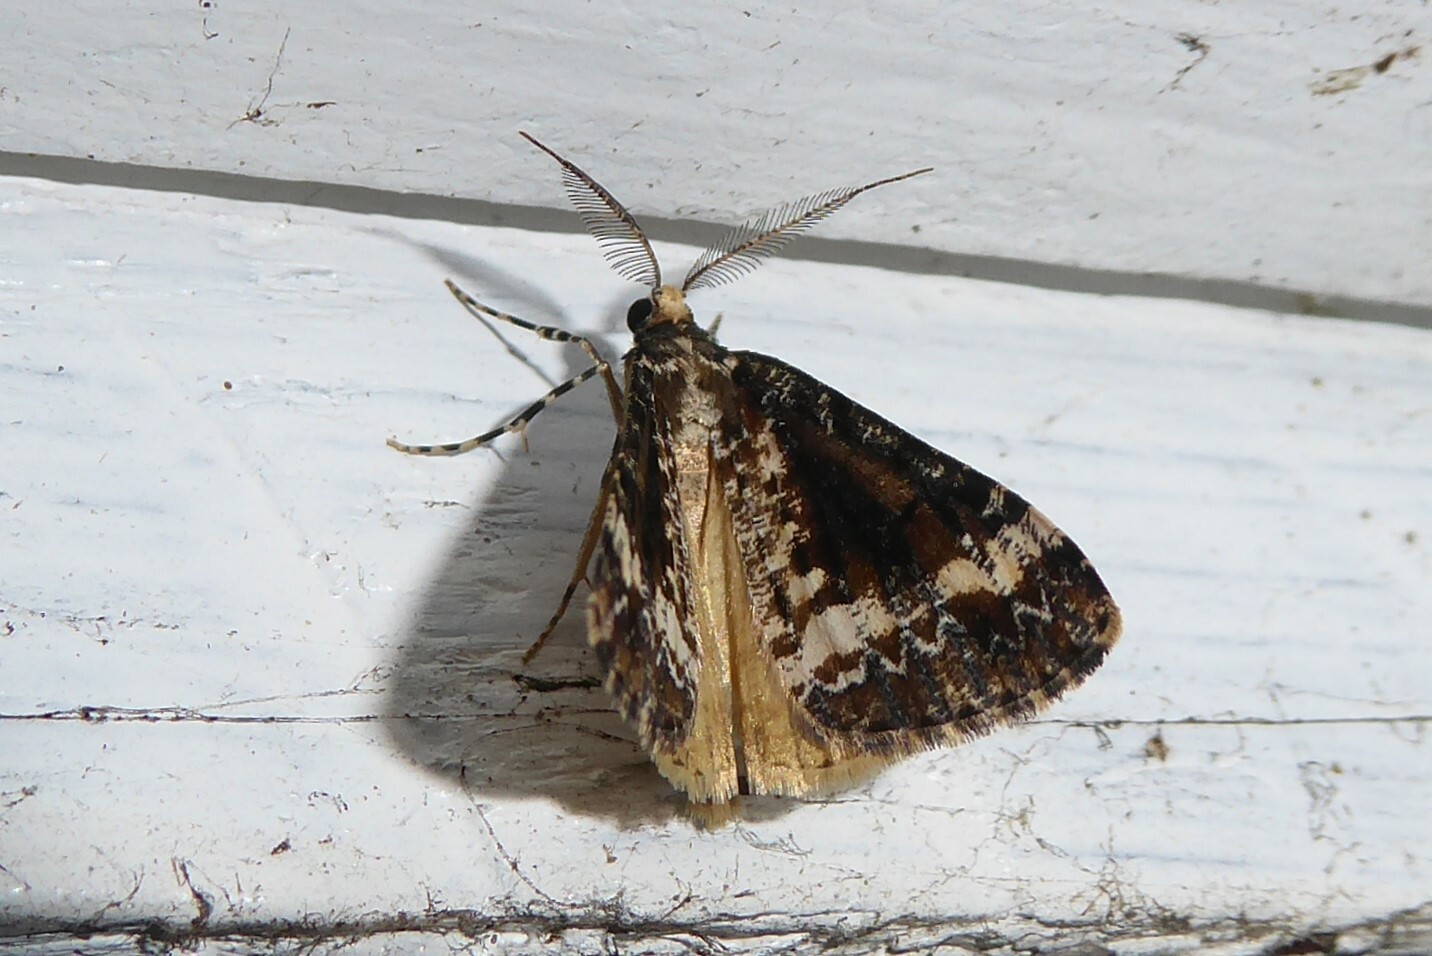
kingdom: Animalia
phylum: Arthropoda
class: Insecta
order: Lepidoptera
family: Geometridae
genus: Pseudocoremia
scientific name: Pseudocoremia leucelaea
